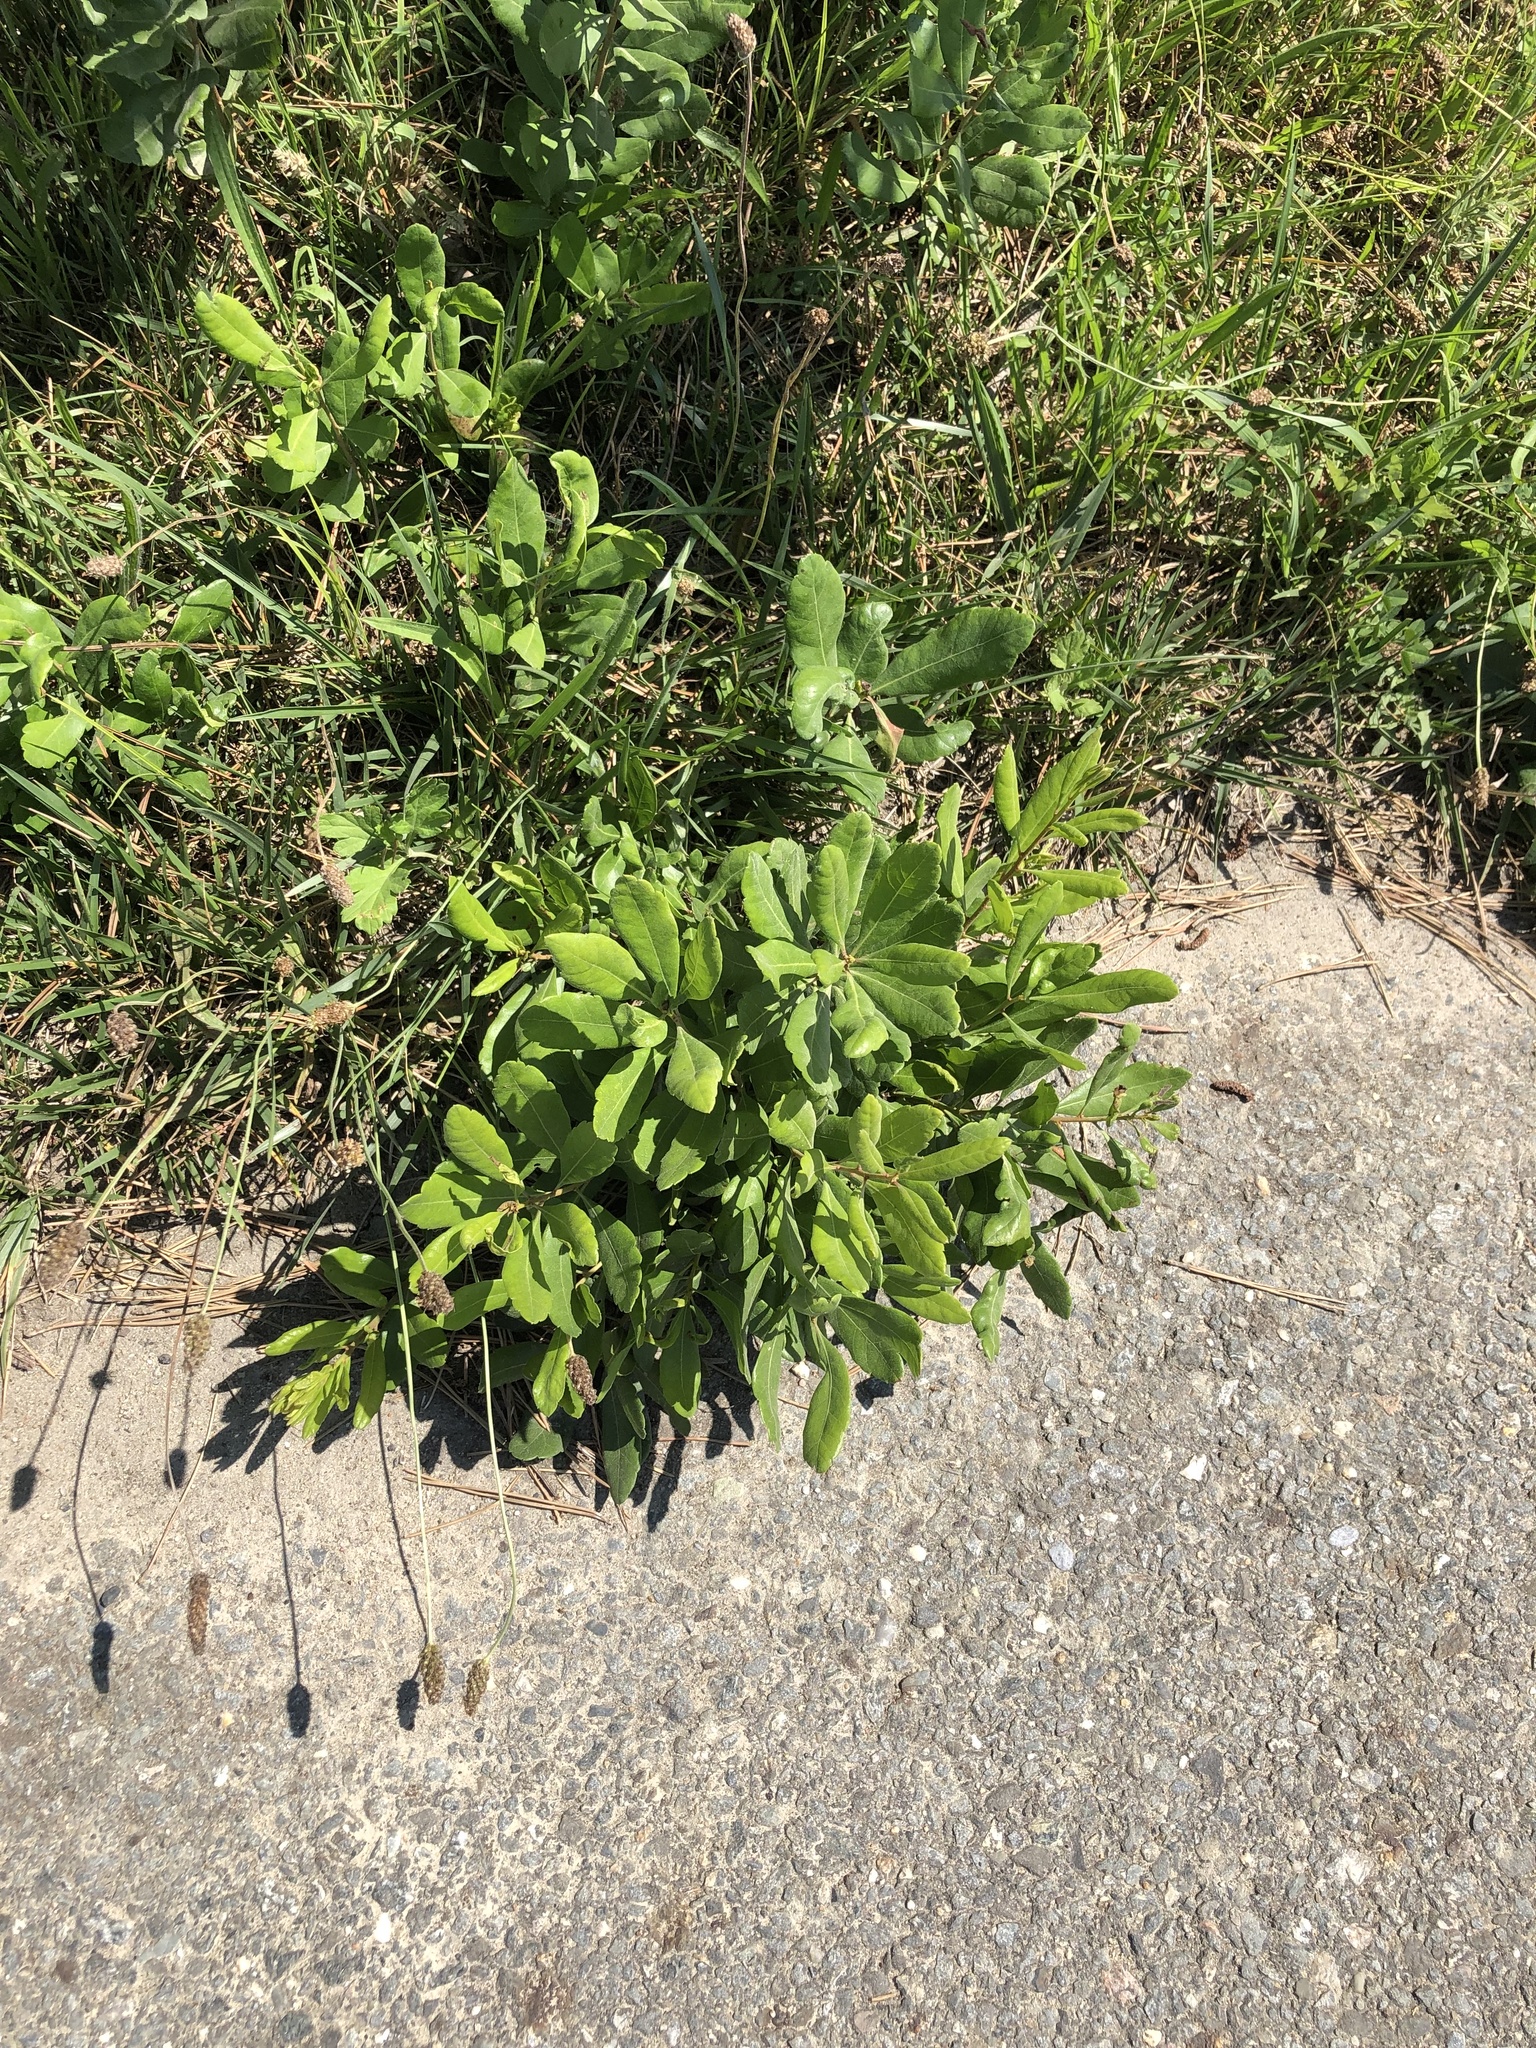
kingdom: Plantae
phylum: Tracheophyta
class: Magnoliopsida
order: Fagales
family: Myricaceae
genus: Morella
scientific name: Morella pensylvanica
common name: Northern bayberry
